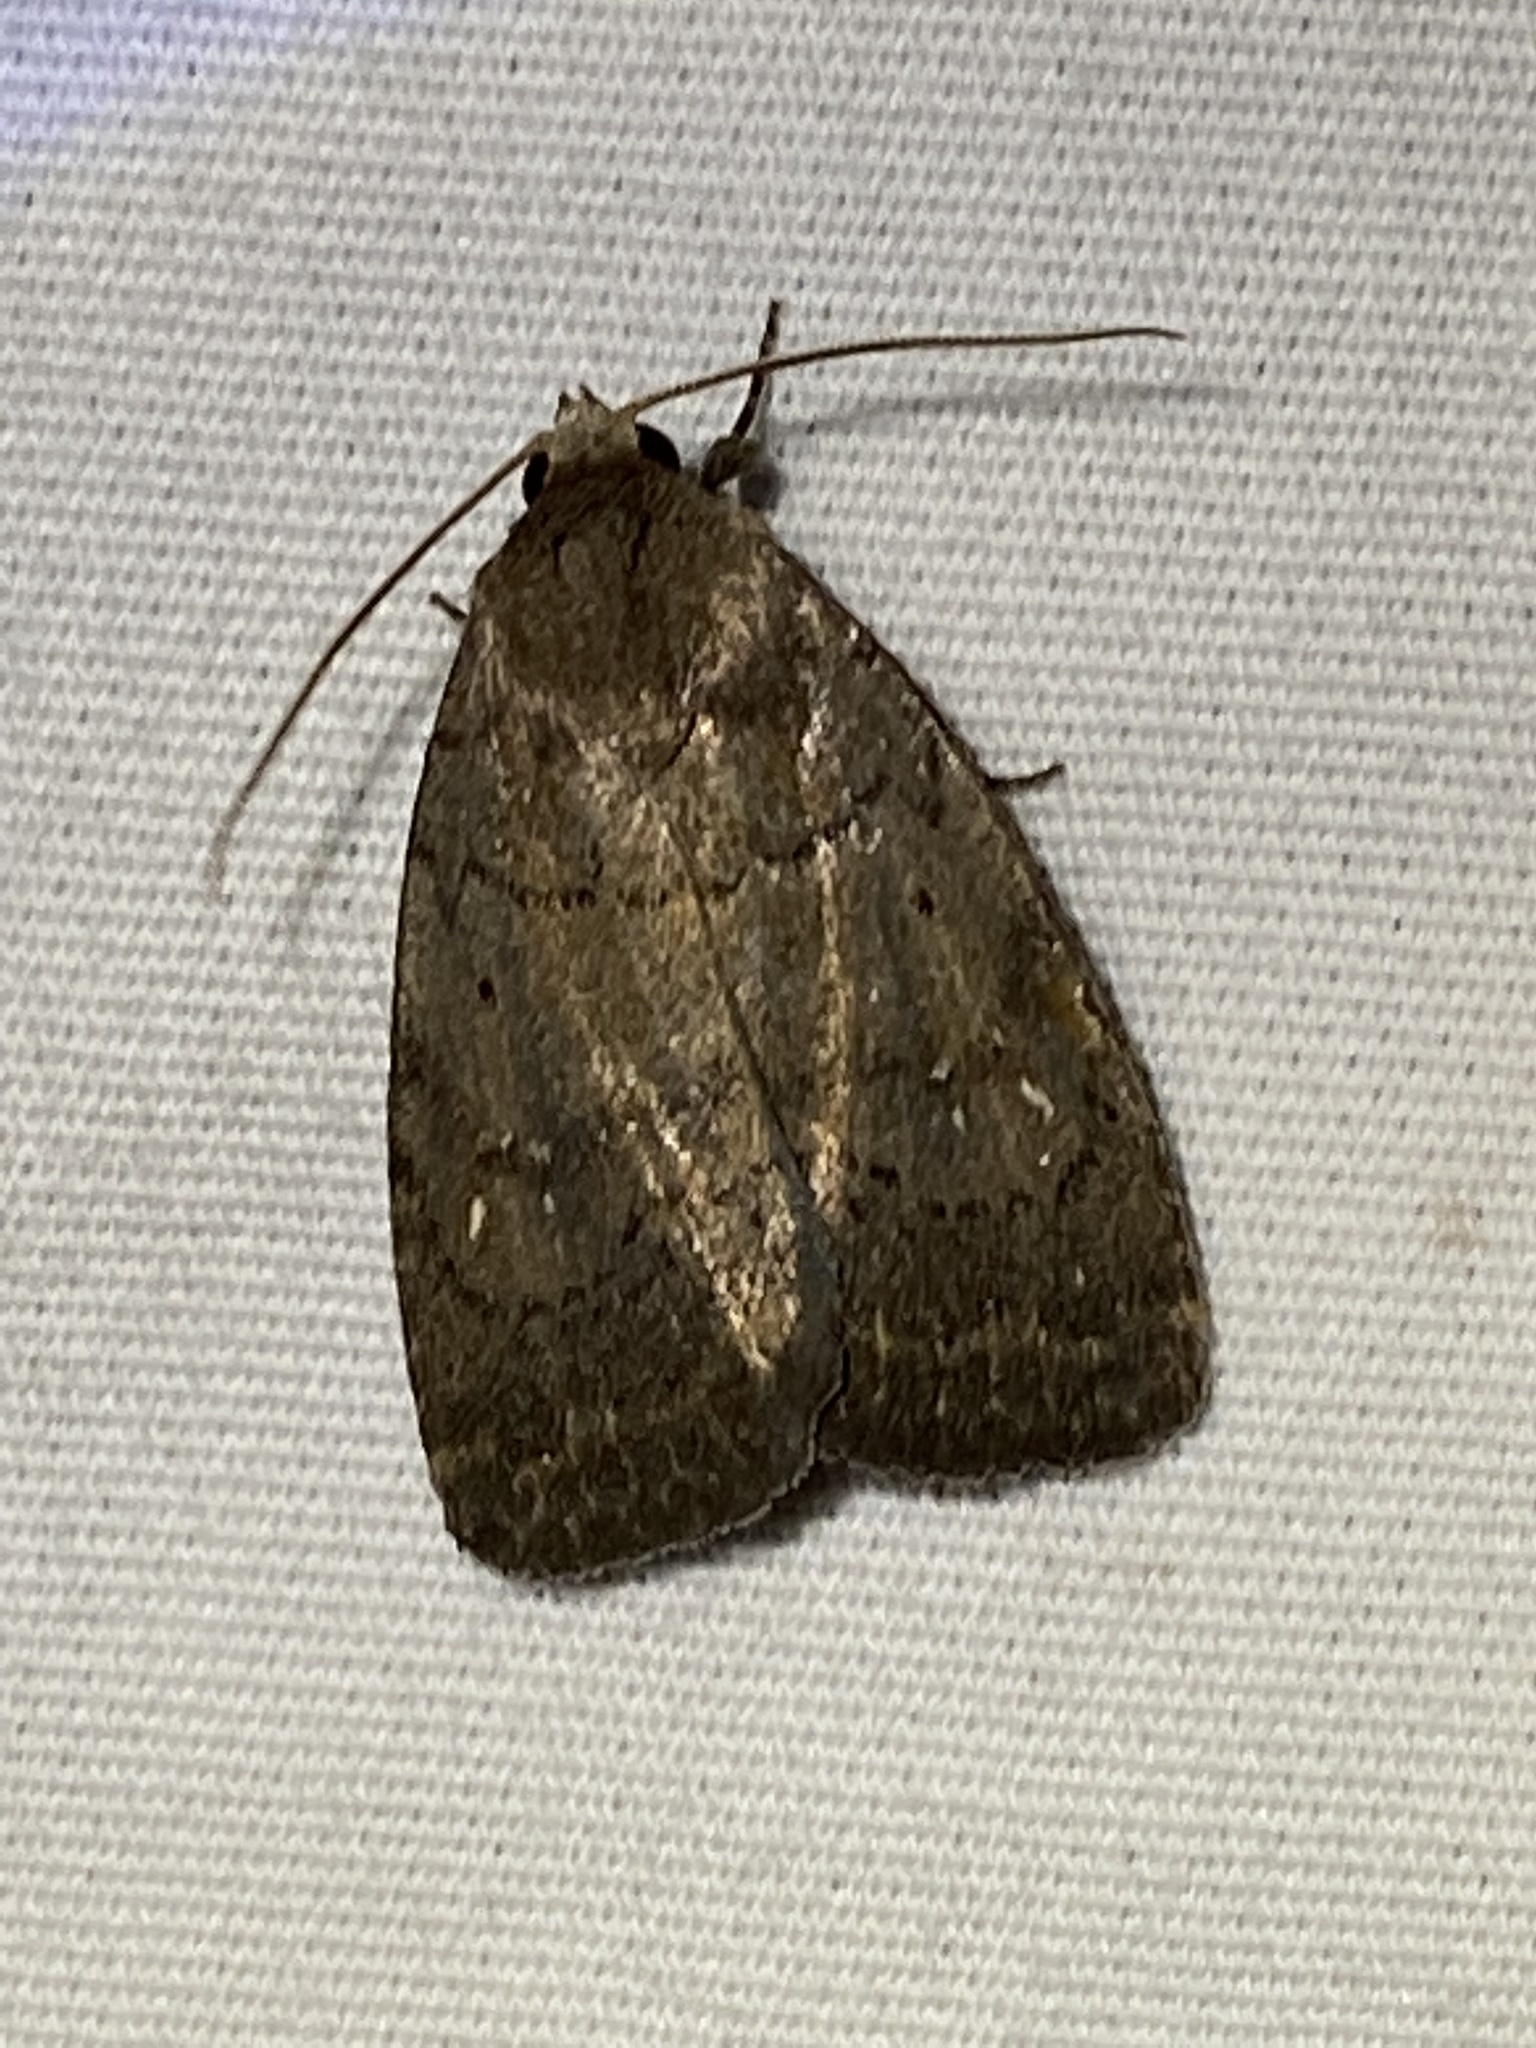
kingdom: Animalia
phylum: Arthropoda
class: Insecta
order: Lepidoptera
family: Noctuidae
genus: Athetis
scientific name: Athetis tarda
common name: Slowpoke moth
